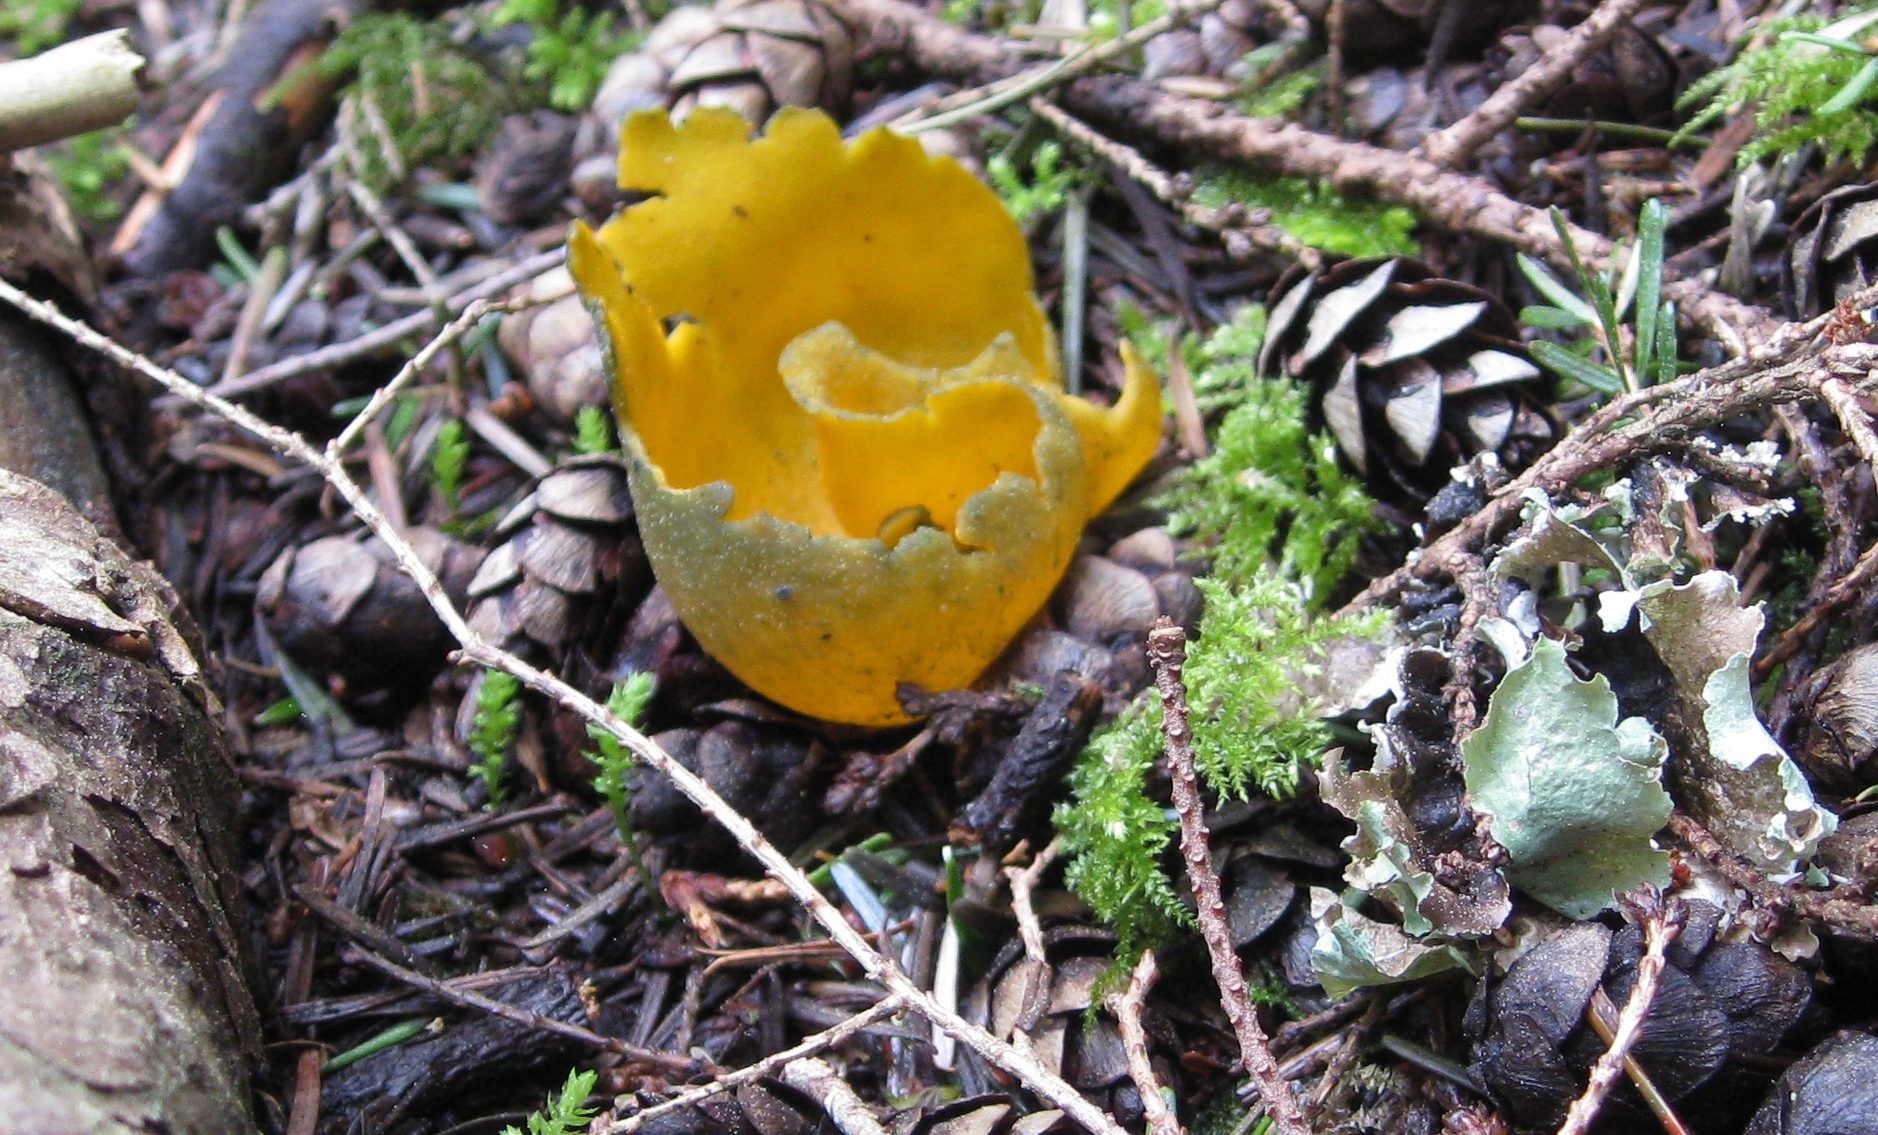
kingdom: Fungi
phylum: Ascomycota
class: Pezizomycetes
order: Pezizales
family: Caloscyphaceae
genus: Caloscypha
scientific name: Caloscypha fulgens
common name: Golden cup
